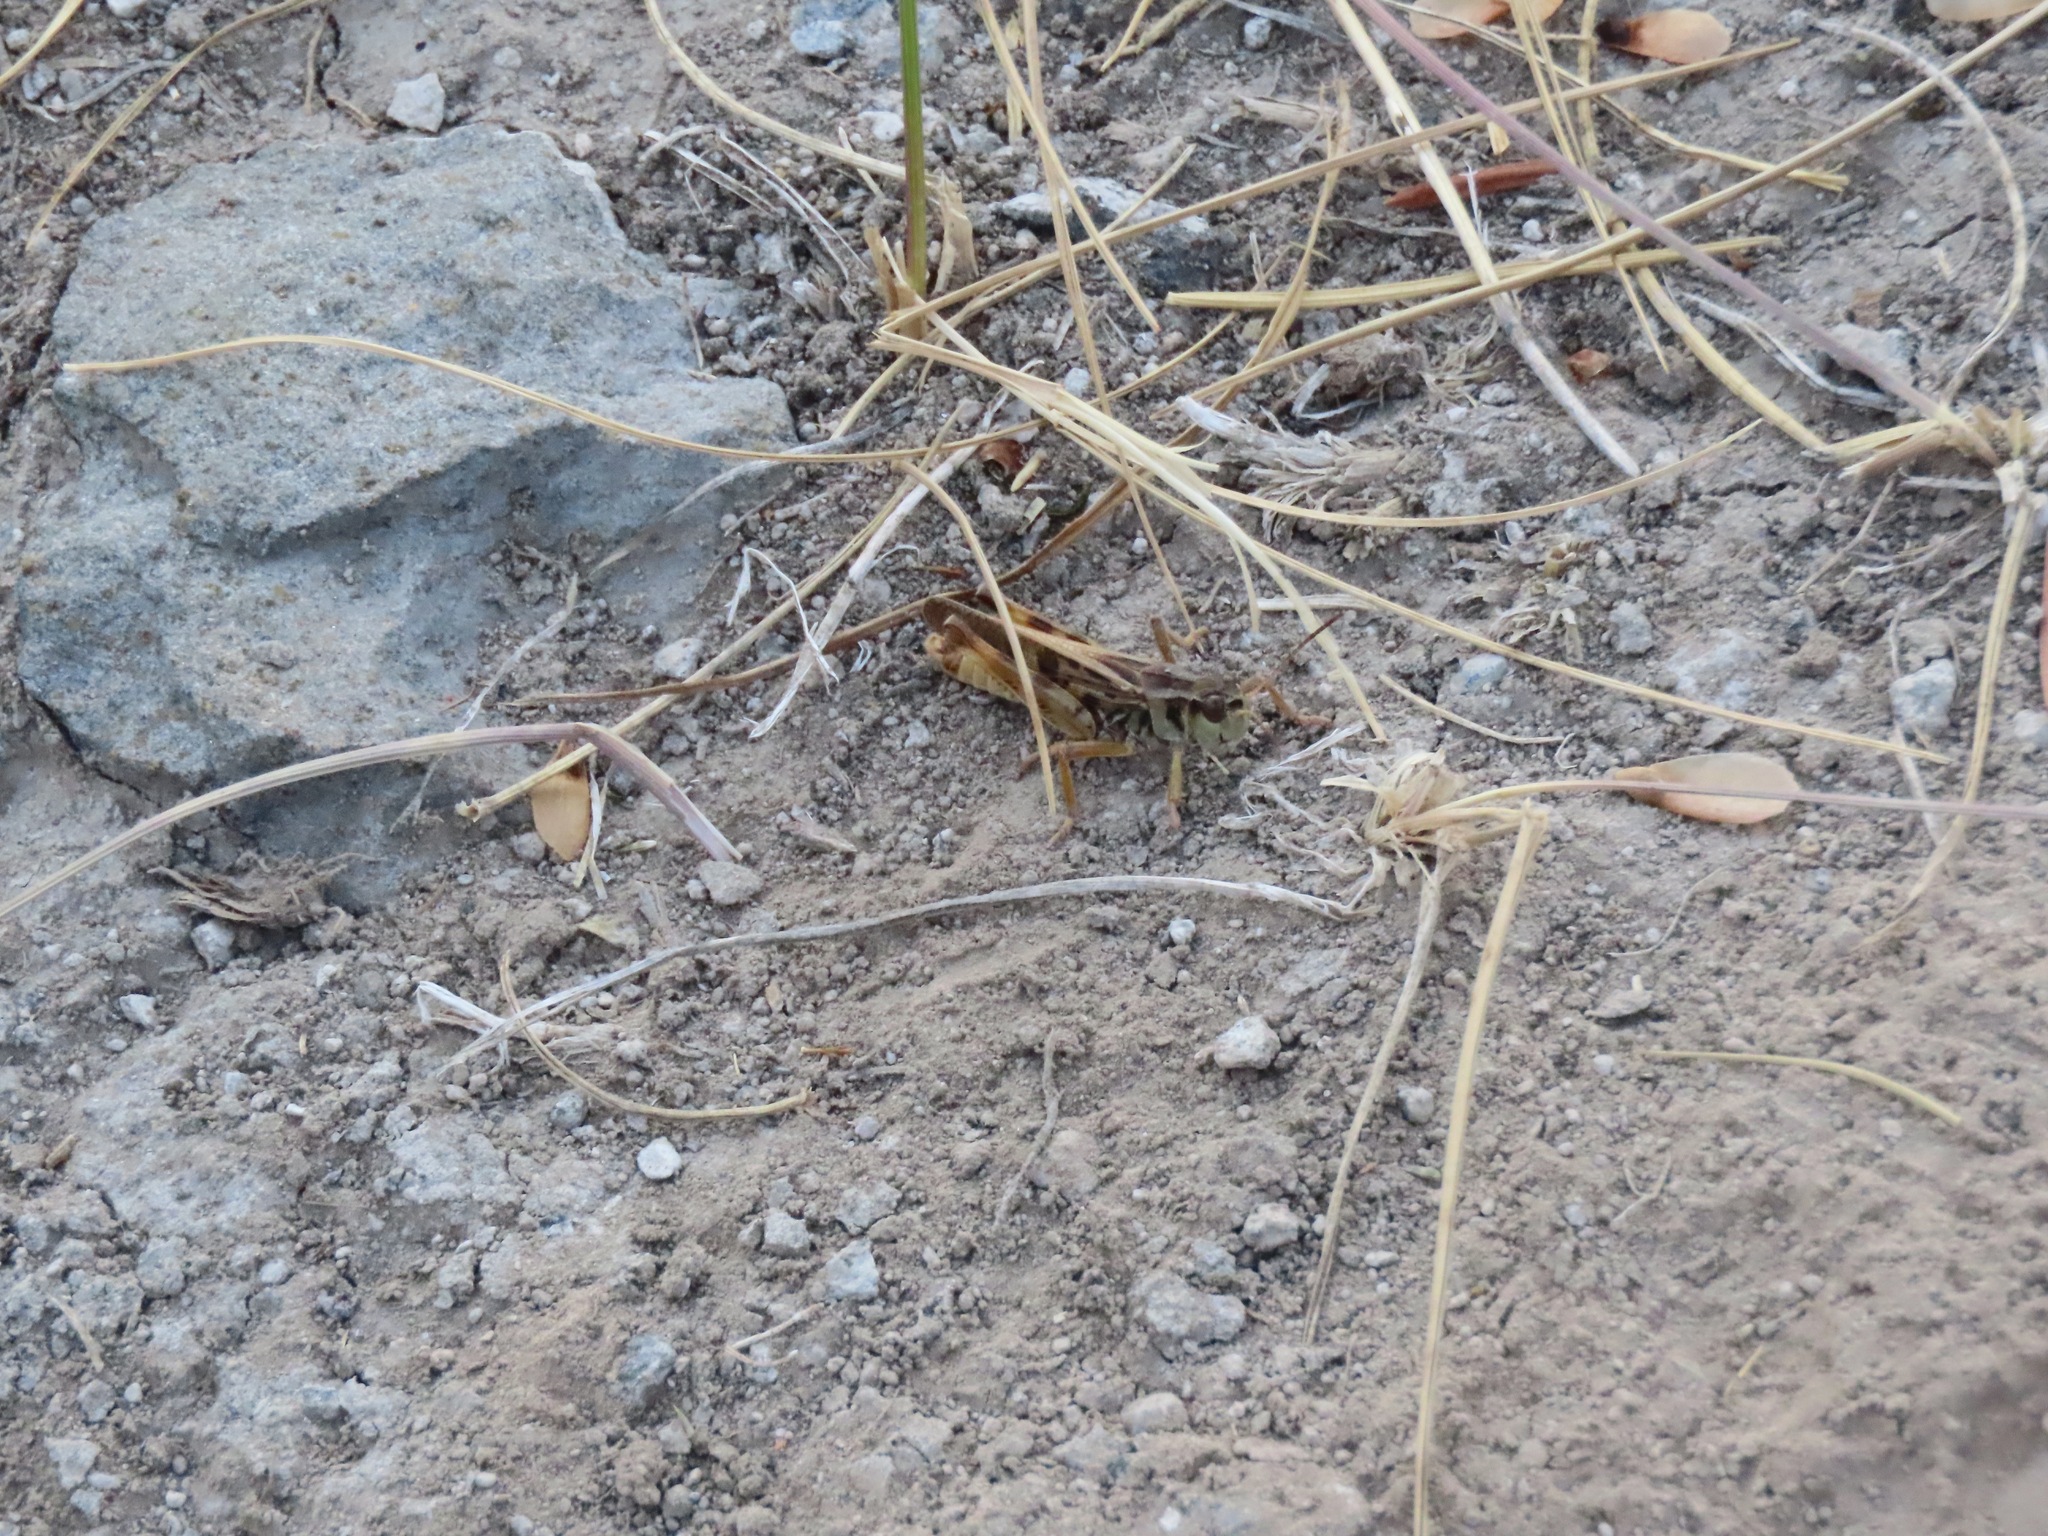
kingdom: Animalia
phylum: Arthropoda
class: Insecta
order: Orthoptera
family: Acrididae
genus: Camnula
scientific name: Camnula pellucida
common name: Clear-winged grasshopper
